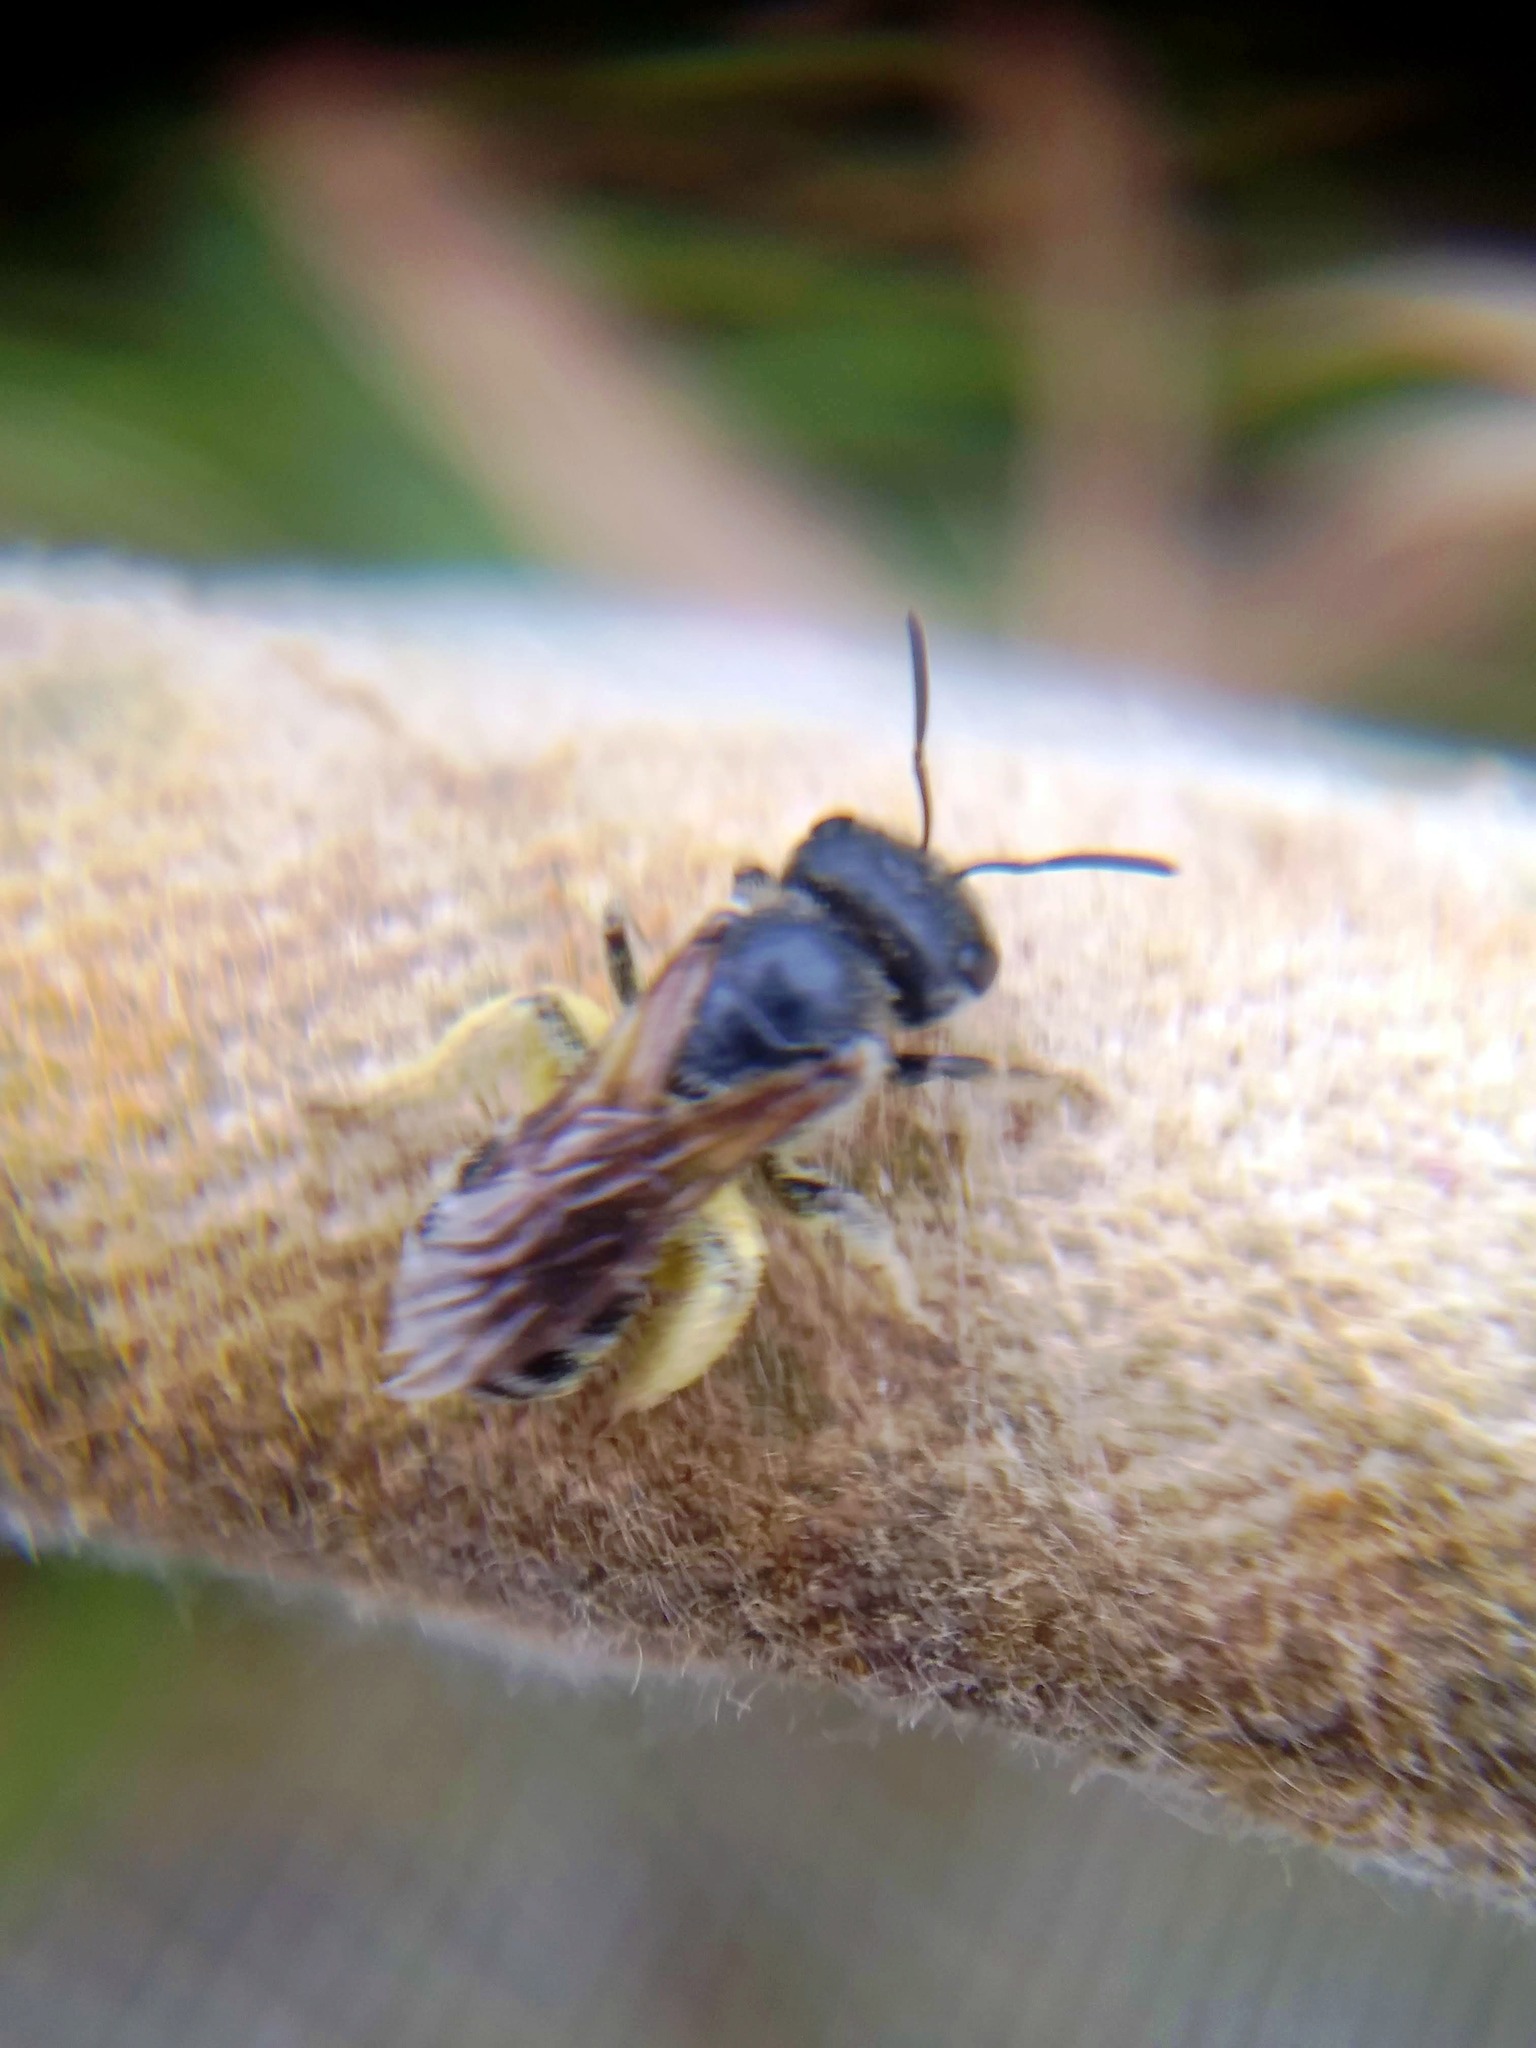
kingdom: Animalia
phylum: Arthropoda
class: Insecta
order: Hymenoptera
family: Halictidae
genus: Halictus
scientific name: Halictus ligatus
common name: Ligated furrow bee
